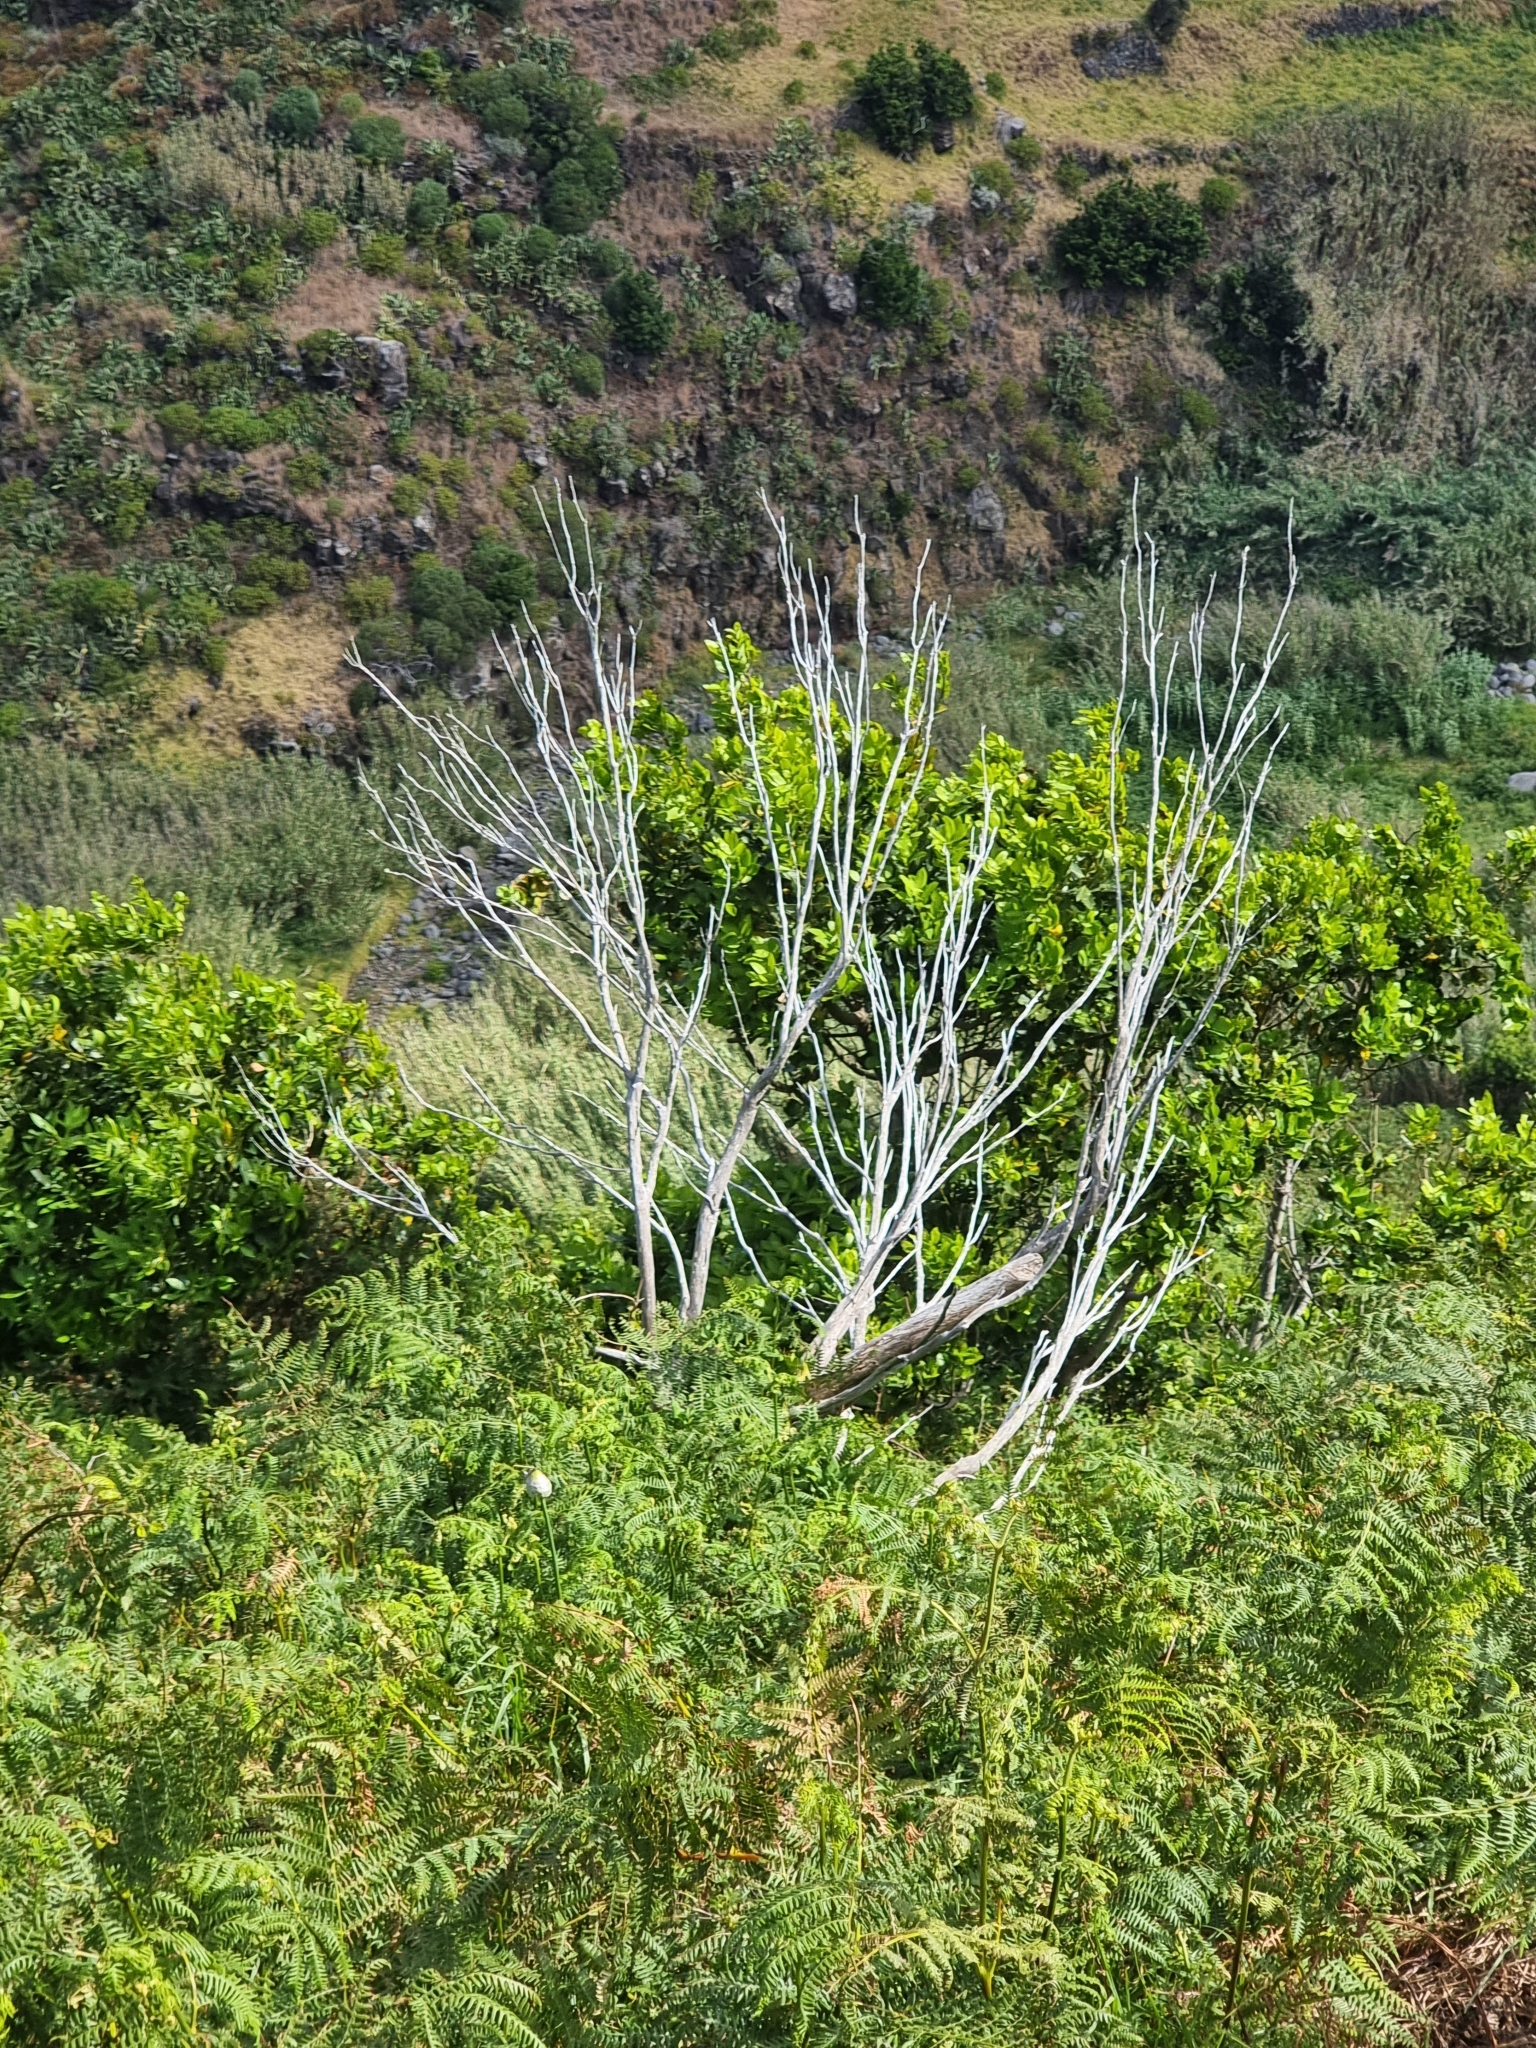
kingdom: Plantae
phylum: Tracheophyta
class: Magnoliopsida
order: Laurales
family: Lauraceae
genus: Laurus
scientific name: Laurus novocanariensis
